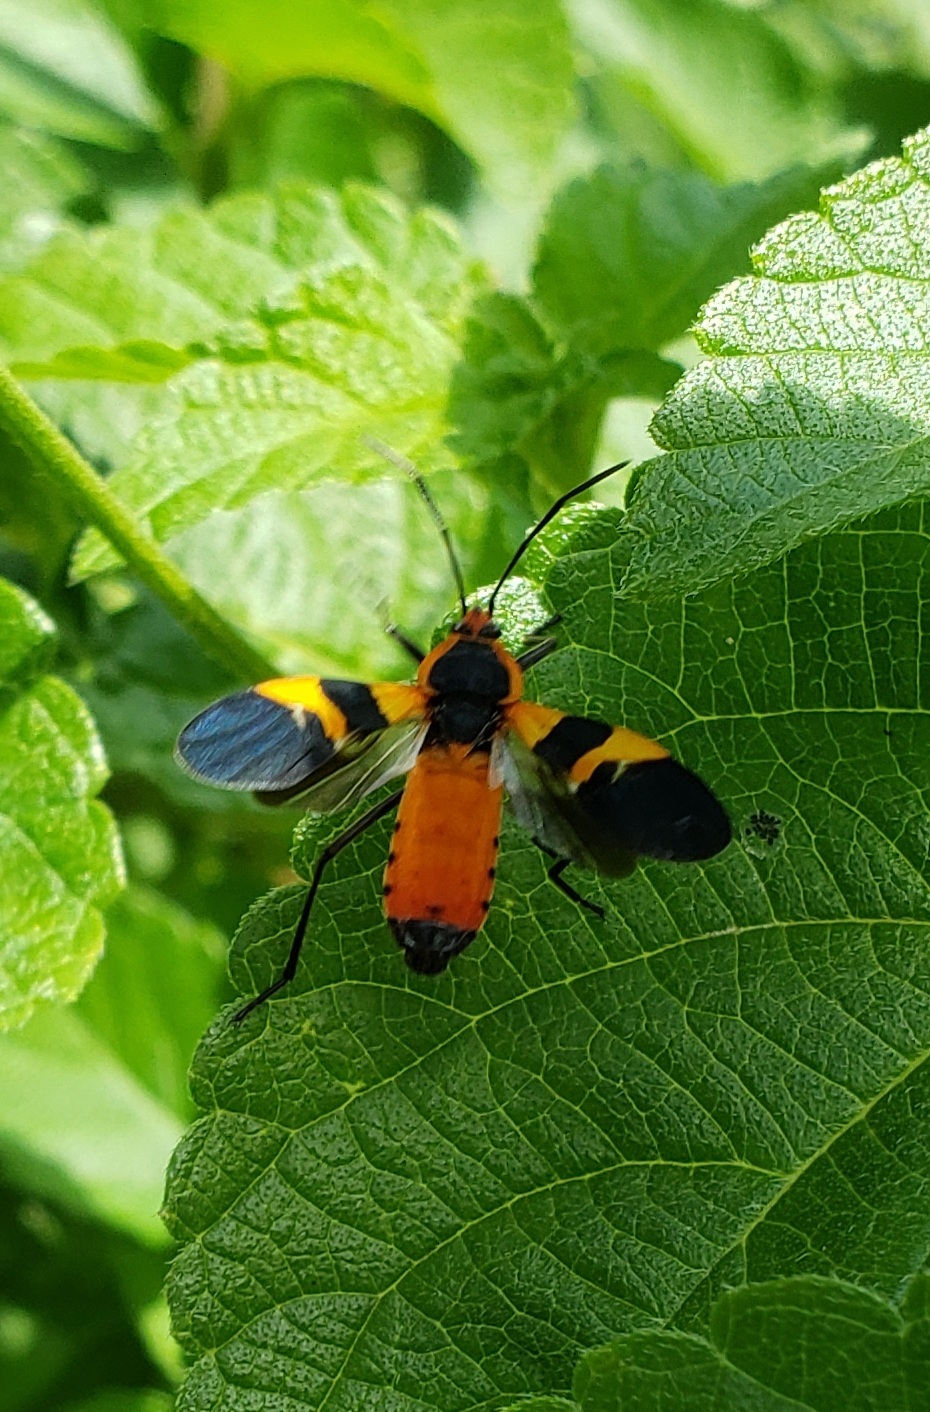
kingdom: Animalia
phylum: Arthropoda
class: Insecta
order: Hemiptera
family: Lygaeidae
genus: Oncopeltus
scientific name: Oncopeltus fasciatus
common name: Large milkweed bug
